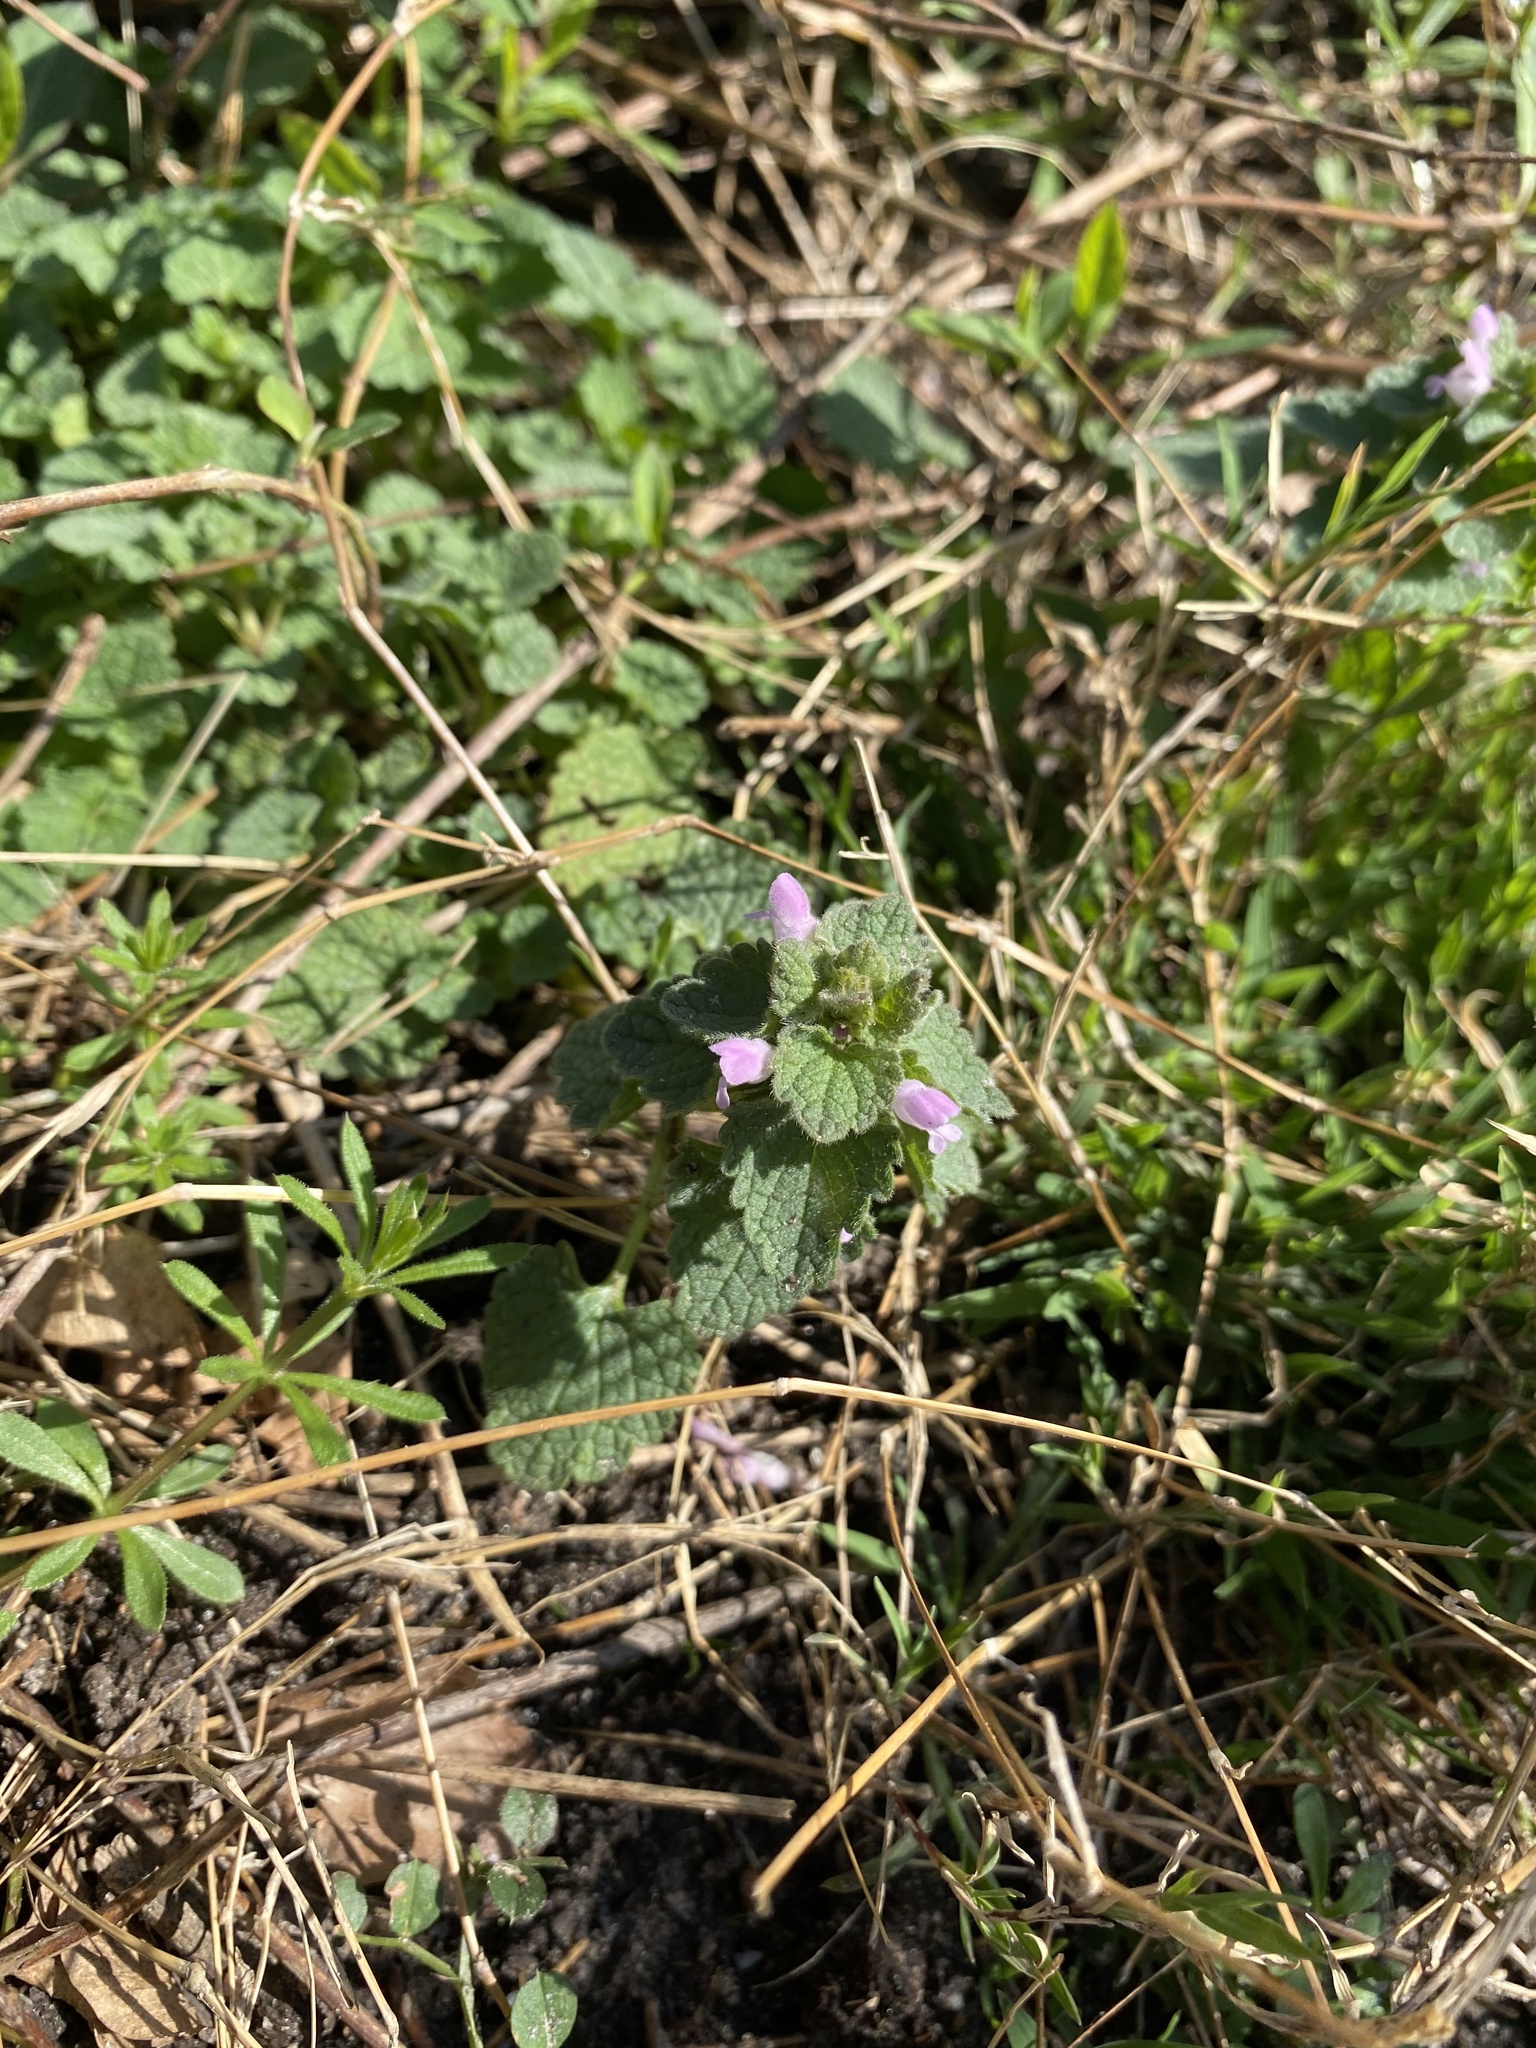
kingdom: Plantae
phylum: Tracheophyta
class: Magnoliopsida
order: Lamiales
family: Lamiaceae
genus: Lamium
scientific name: Lamium purpureum
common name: Red dead-nettle
